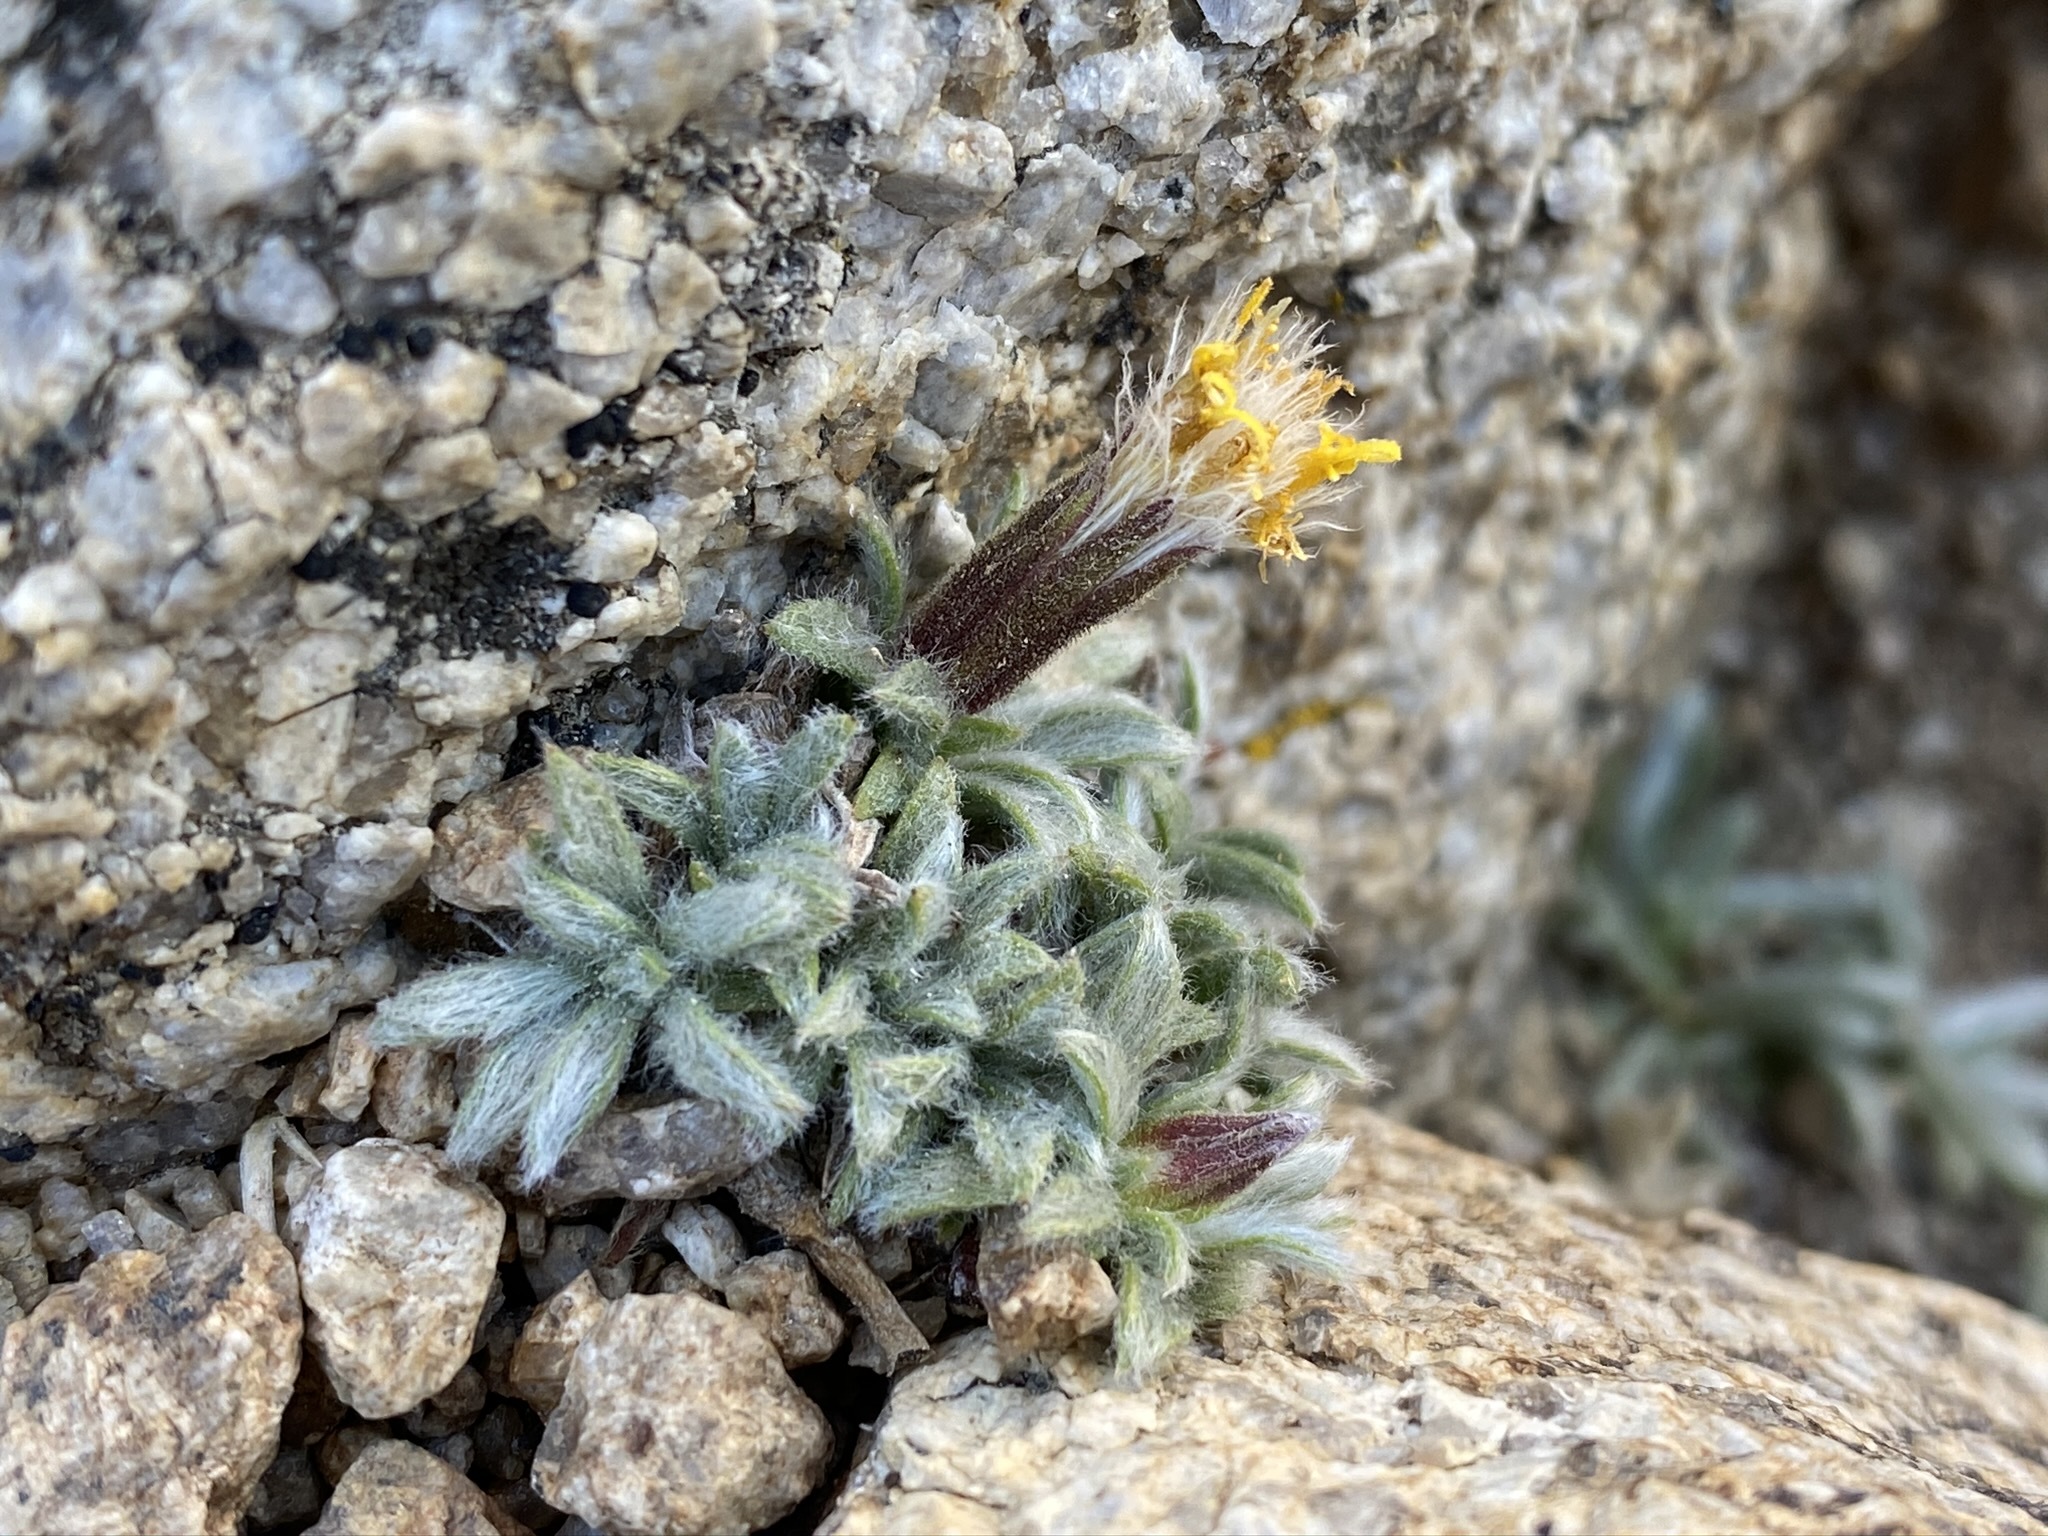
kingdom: Plantae
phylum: Tracheophyta
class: Magnoliopsida
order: Asterales
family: Asteraceae
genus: Raillardella
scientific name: Raillardella argentea
